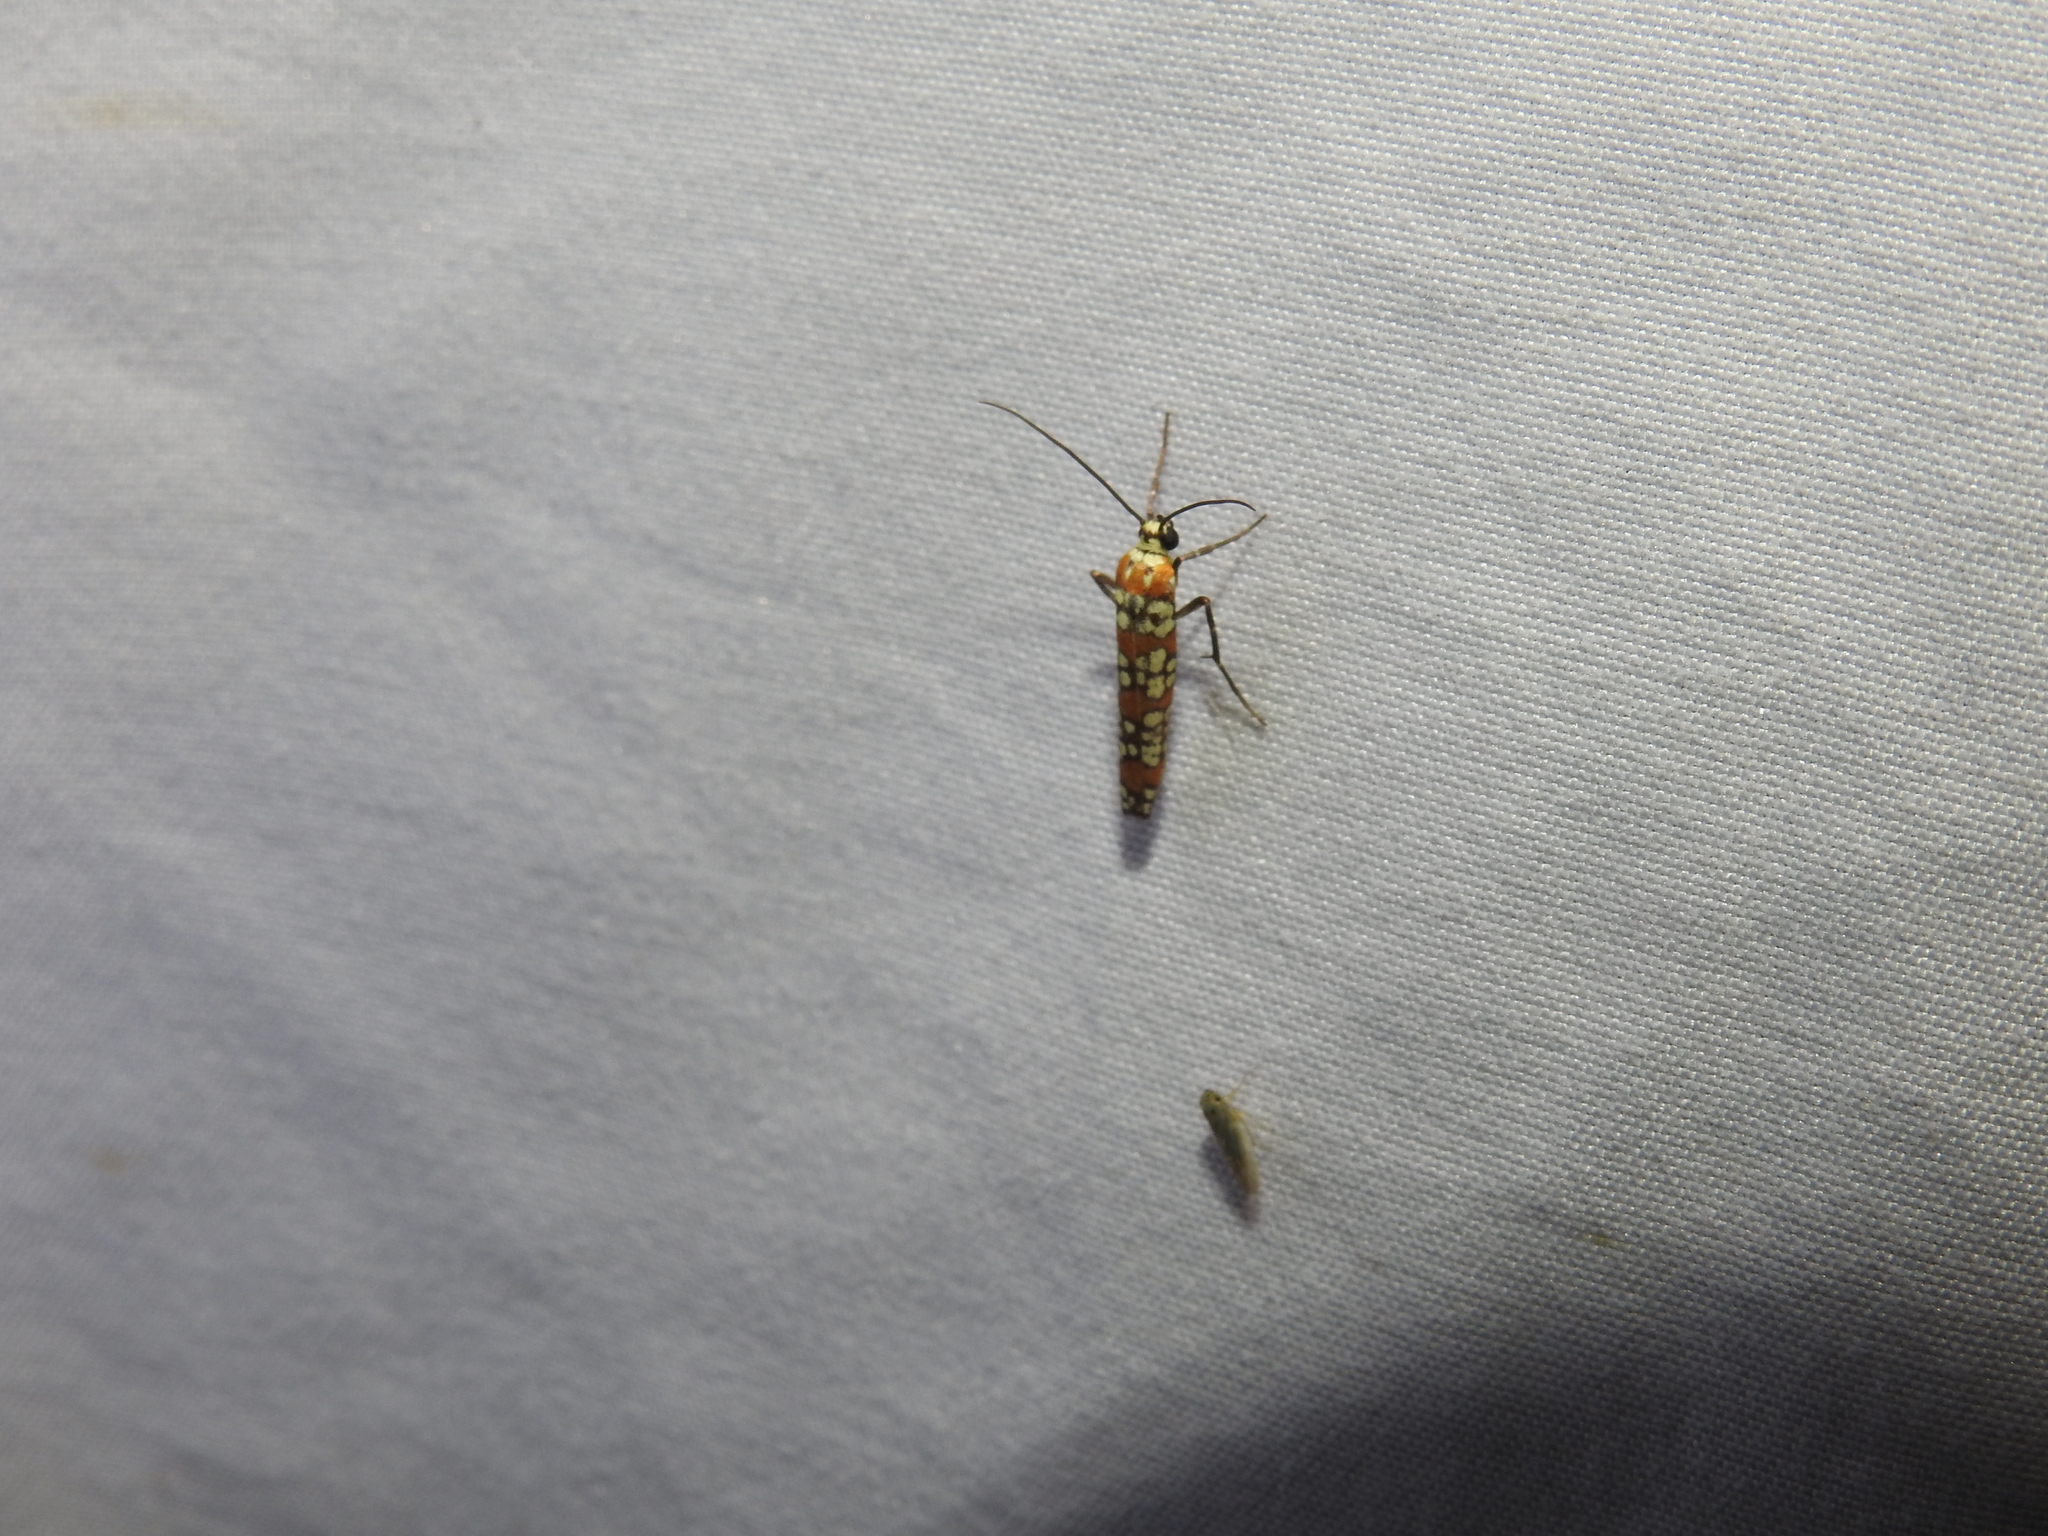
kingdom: Animalia
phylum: Arthropoda
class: Insecta
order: Lepidoptera
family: Attevidae
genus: Atteva
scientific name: Atteva punctella
